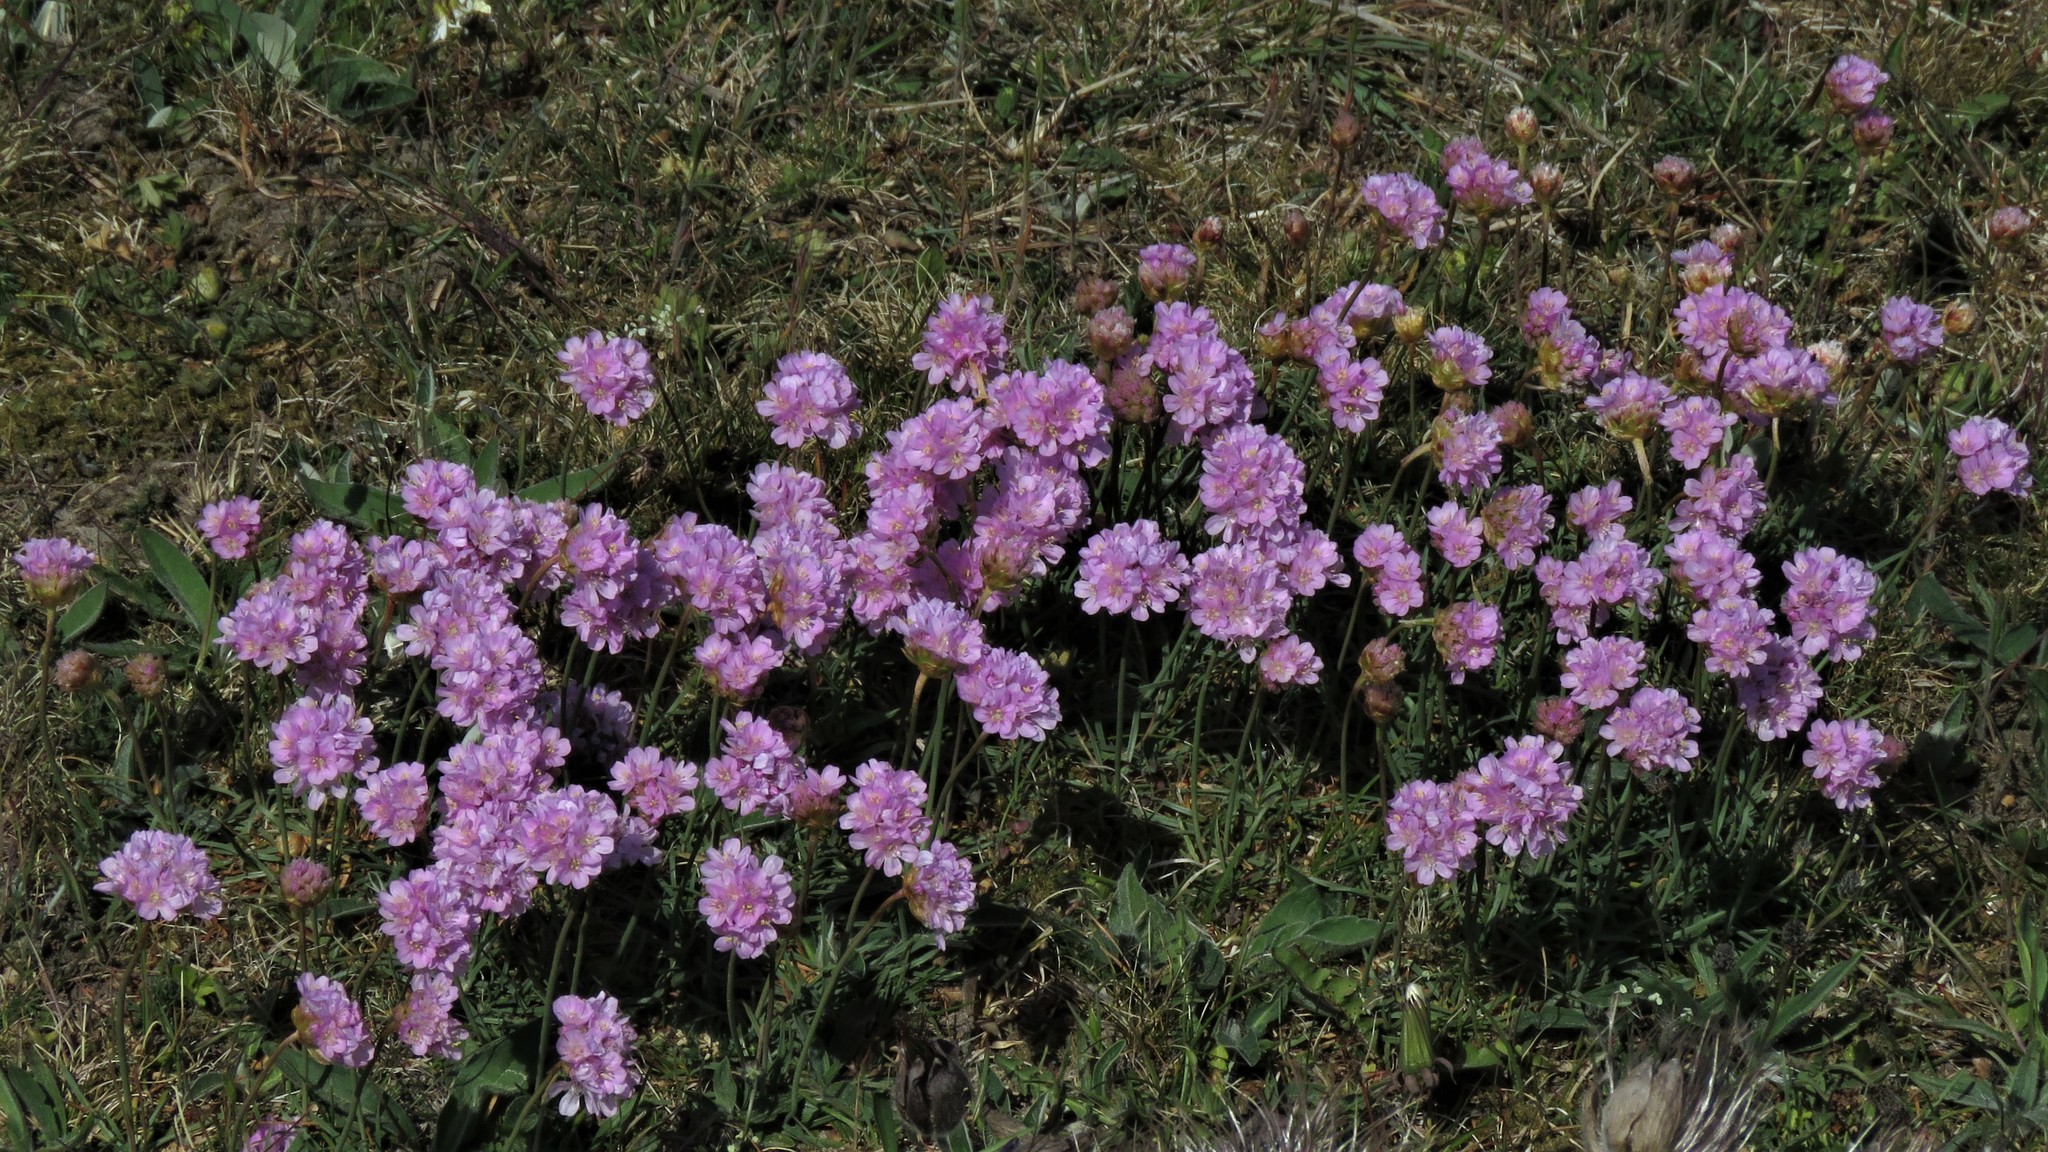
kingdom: Plantae
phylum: Tracheophyta
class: Magnoliopsida
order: Caryophyllales
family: Plumbaginaceae
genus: Armeria
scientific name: Armeria maritima
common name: Thrift
